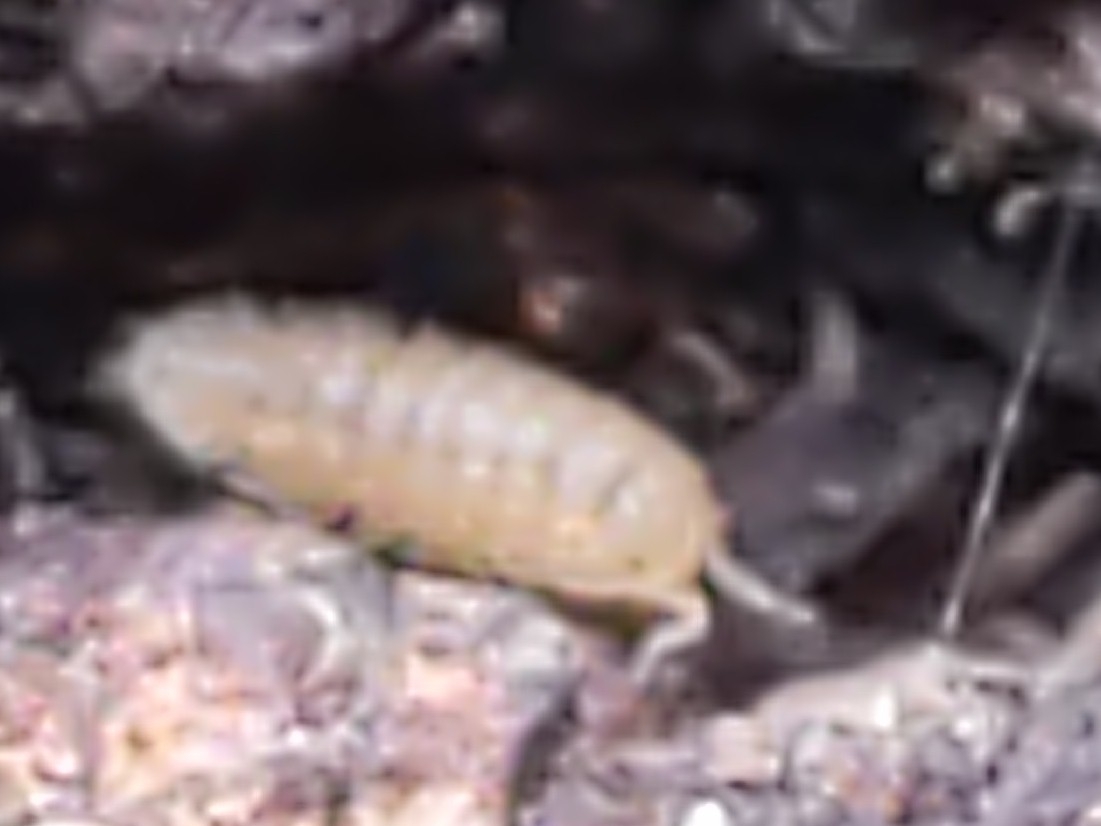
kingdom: Animalia
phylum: Arthropoda
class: Malacostraca
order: Isopoda
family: Trichoniscidae
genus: Haplophthalmus
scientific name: Haplophthalmus danicus
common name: Pillbug
